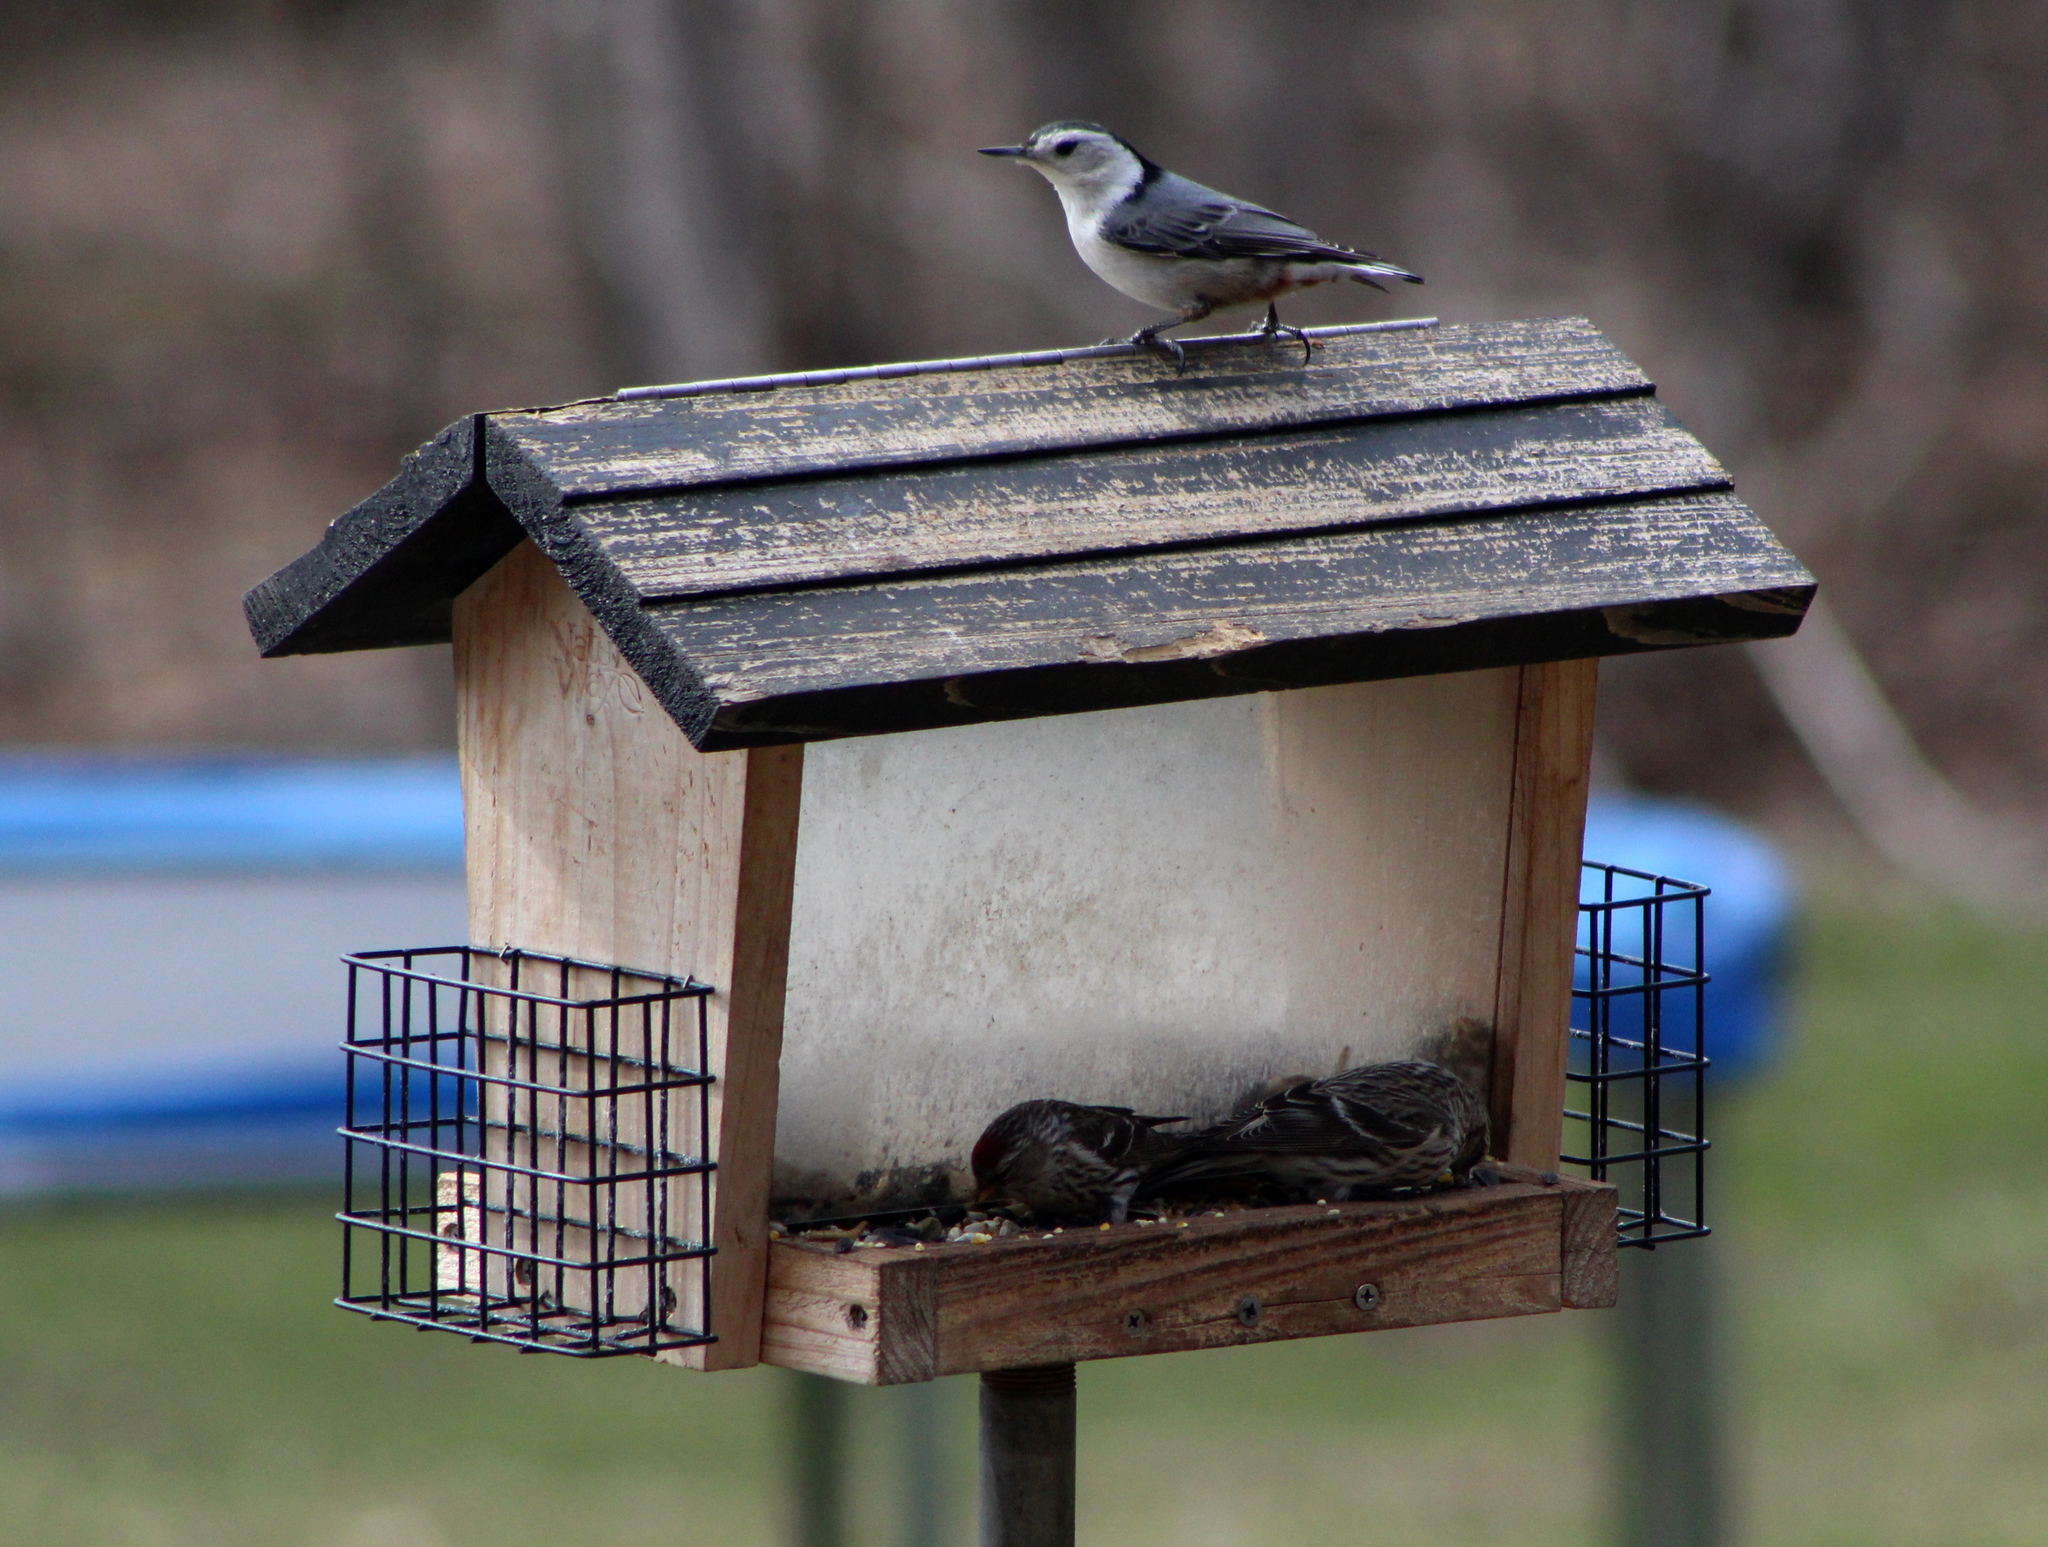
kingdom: Animalia
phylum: Chordata
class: Aves
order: Passeriformes
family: Sittidae
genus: Sitta
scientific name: Sitta carolinensis
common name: White-breasted nuthatch
